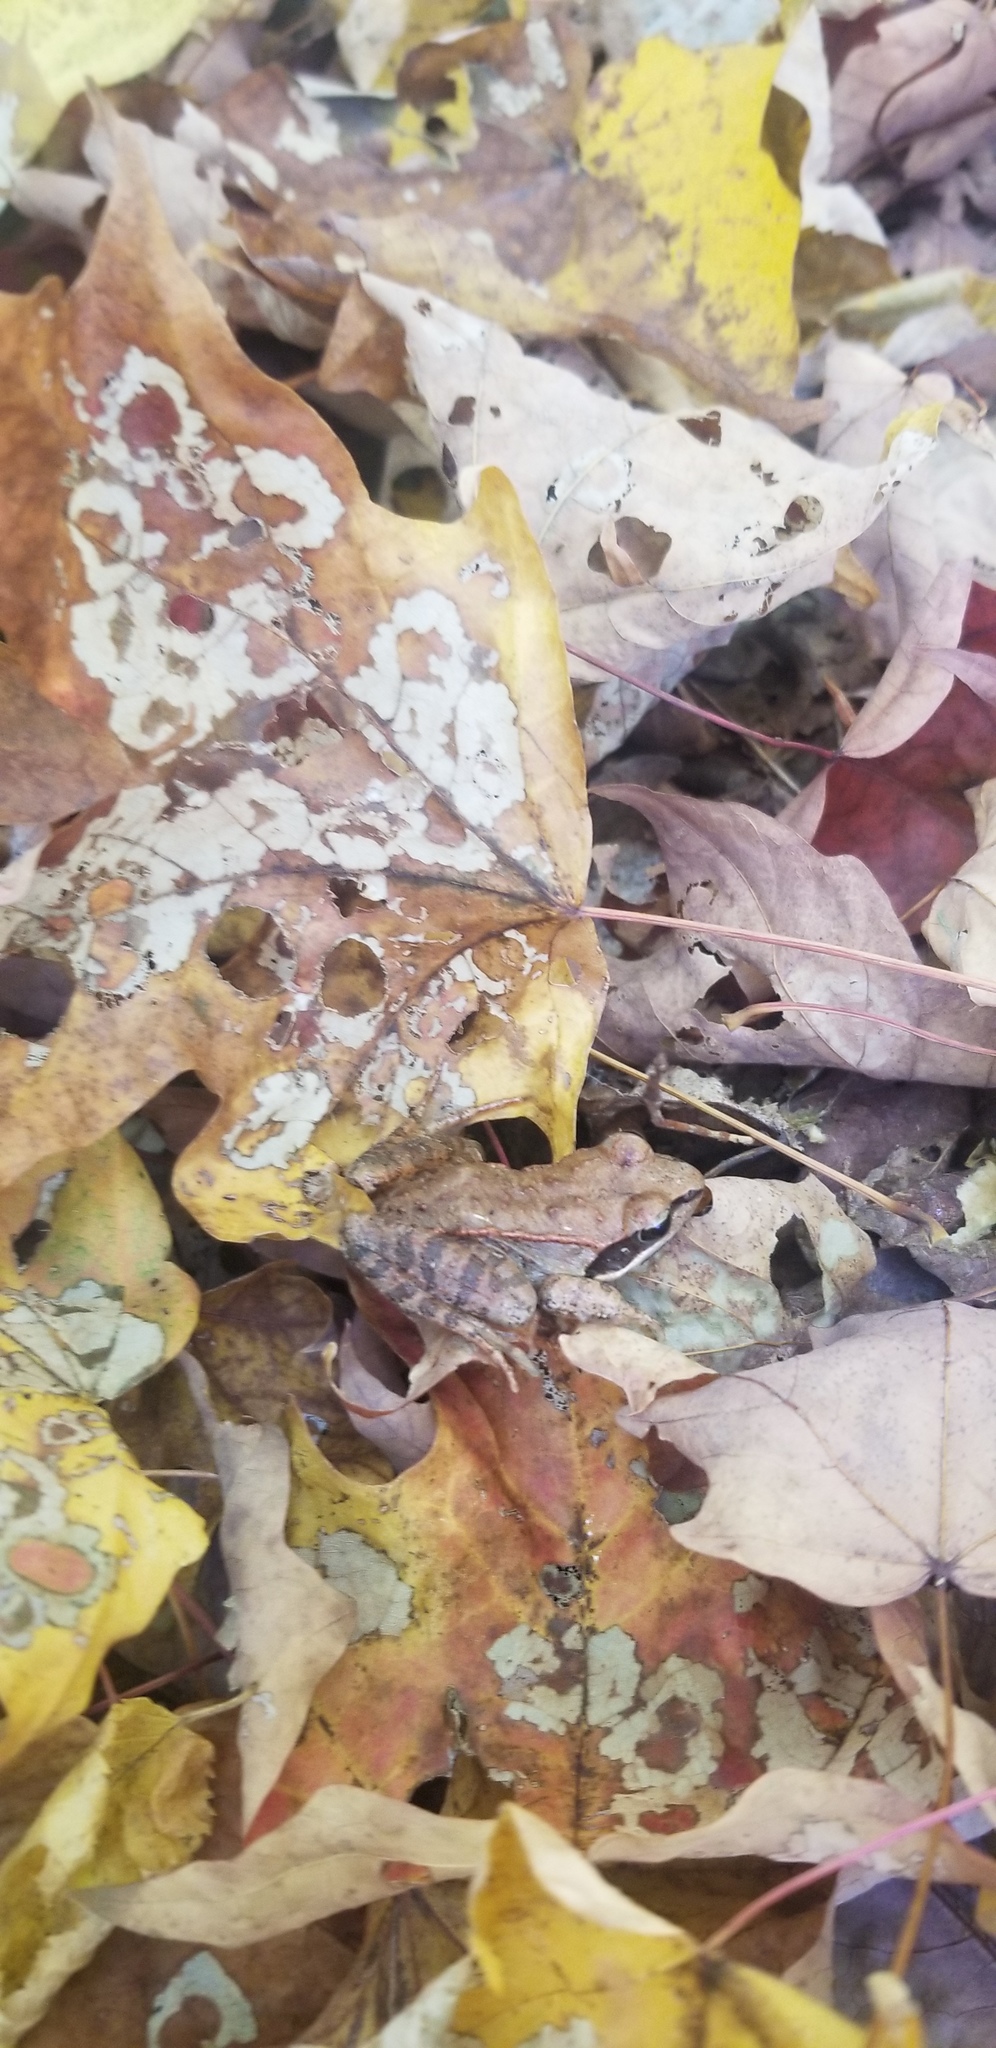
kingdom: Animalia
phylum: Chordata
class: Amphibia
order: Anura
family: Ranidae
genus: Lithobates
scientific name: Lithobates sylvaticus
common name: Wood frog
